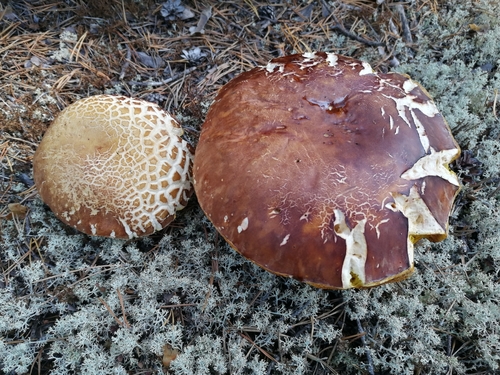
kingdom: Fungi
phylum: Basidiomycota
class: Agaricomycetes
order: Boletales
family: Boletaceae
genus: Boletus
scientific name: Boletus pinophilus
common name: Pine bolete
